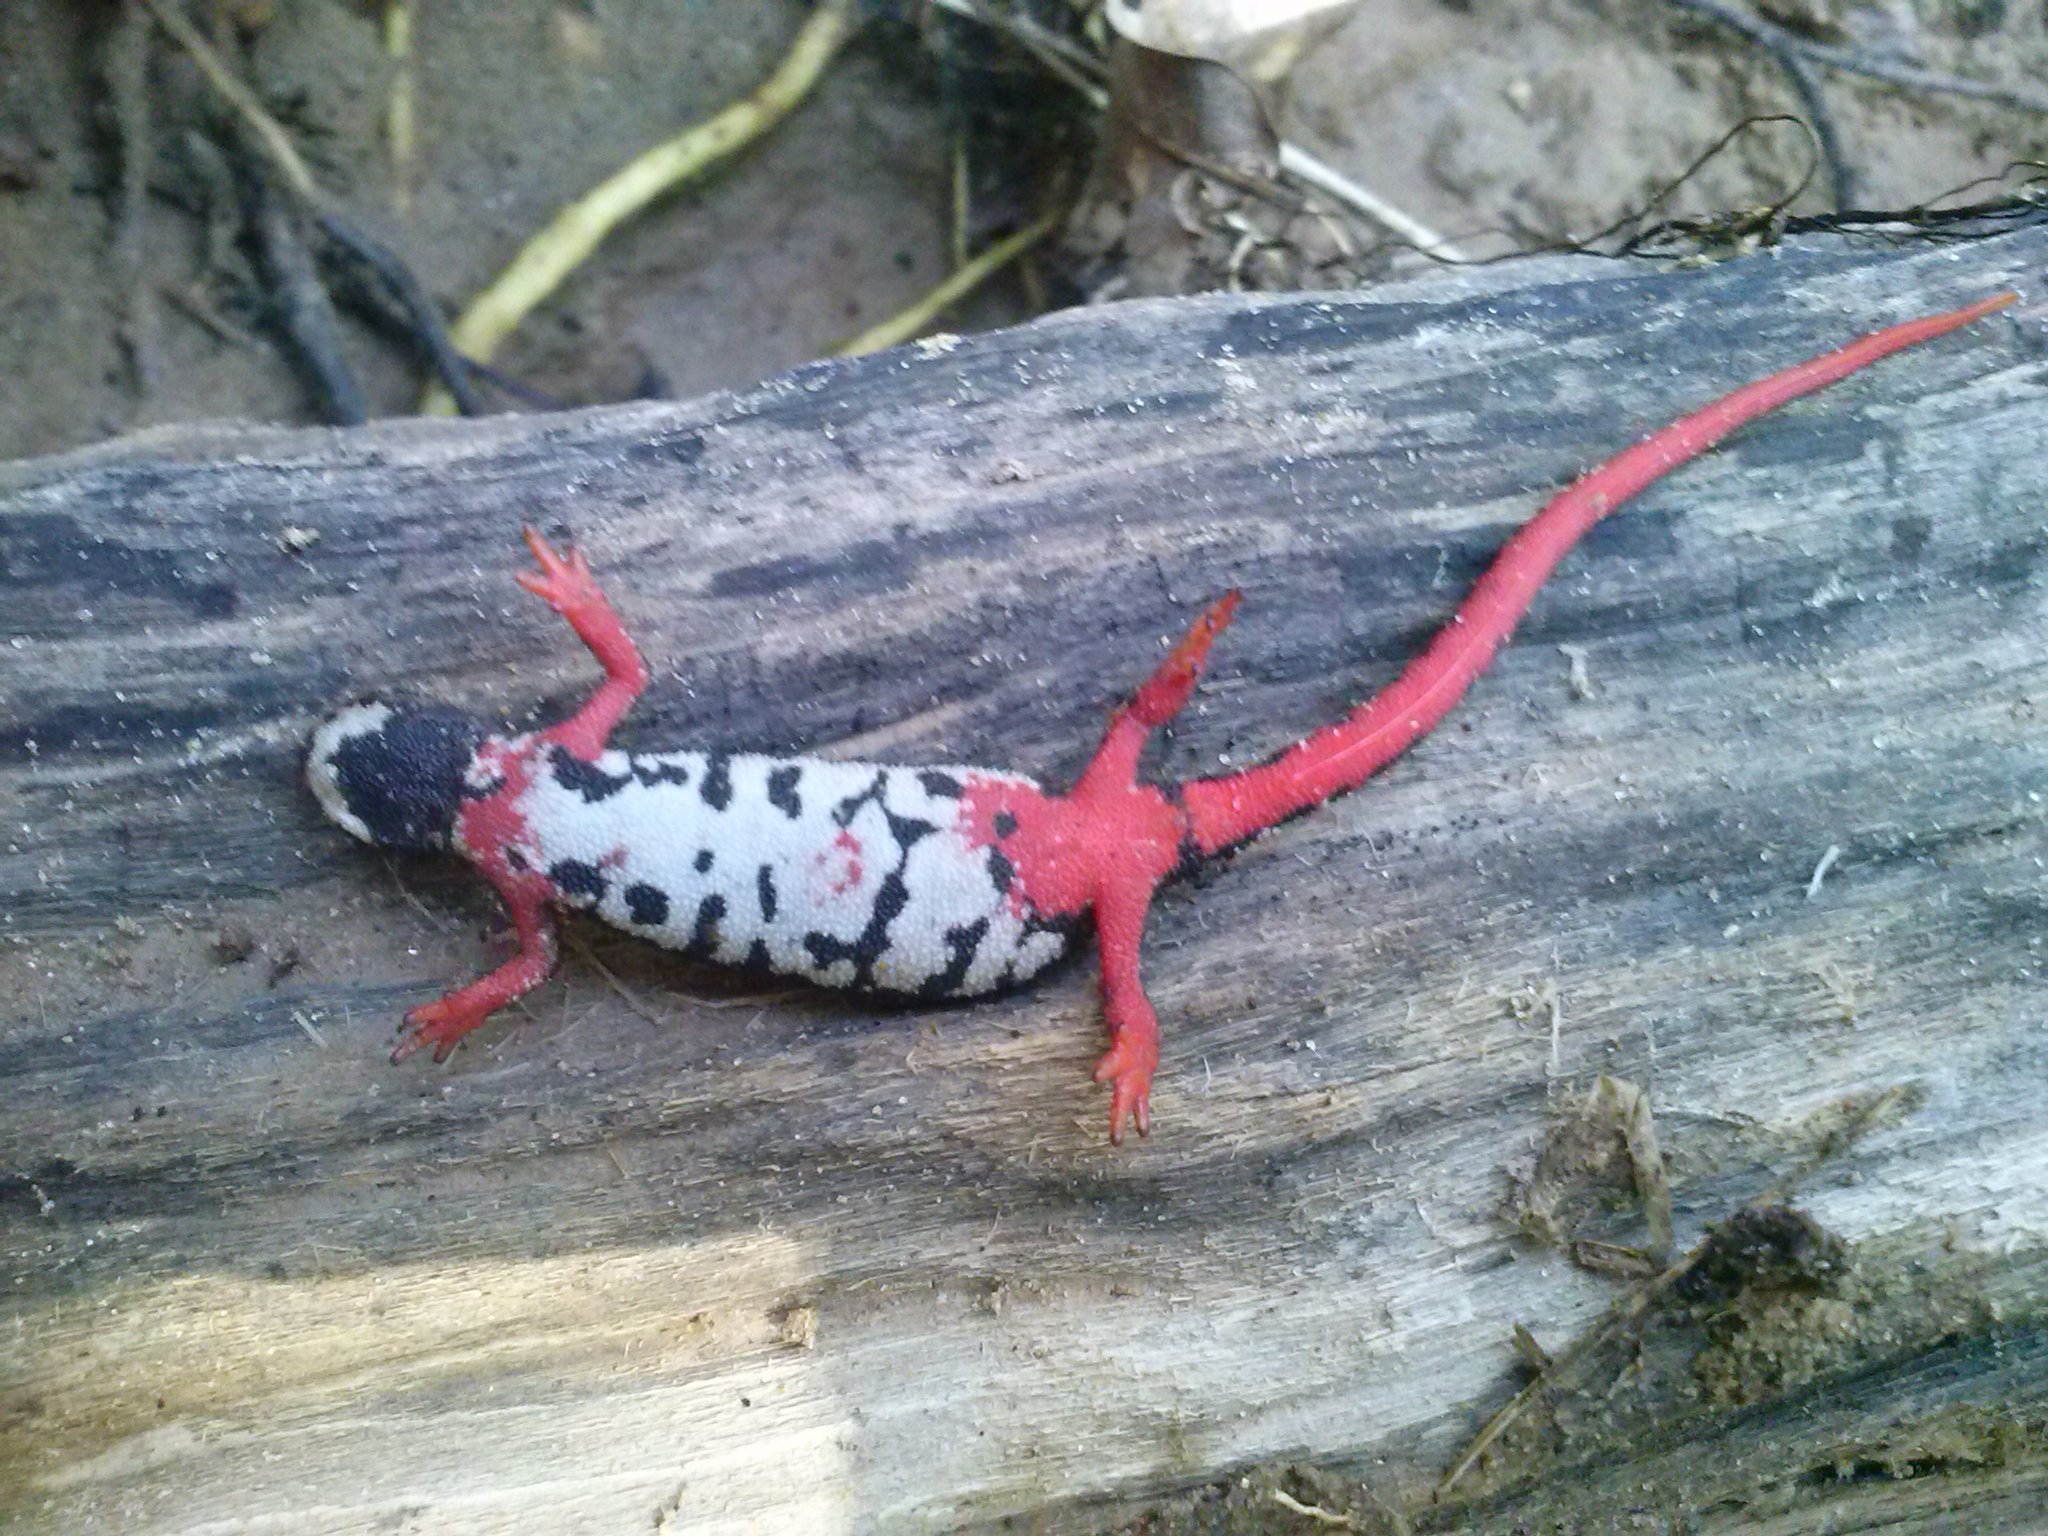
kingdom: Animalia
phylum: Chordata
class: Amphibia
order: Caudata
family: Salamandridae
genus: Salamandrina
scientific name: Salamandrina perspicillata
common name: Northern spectacled salamander
